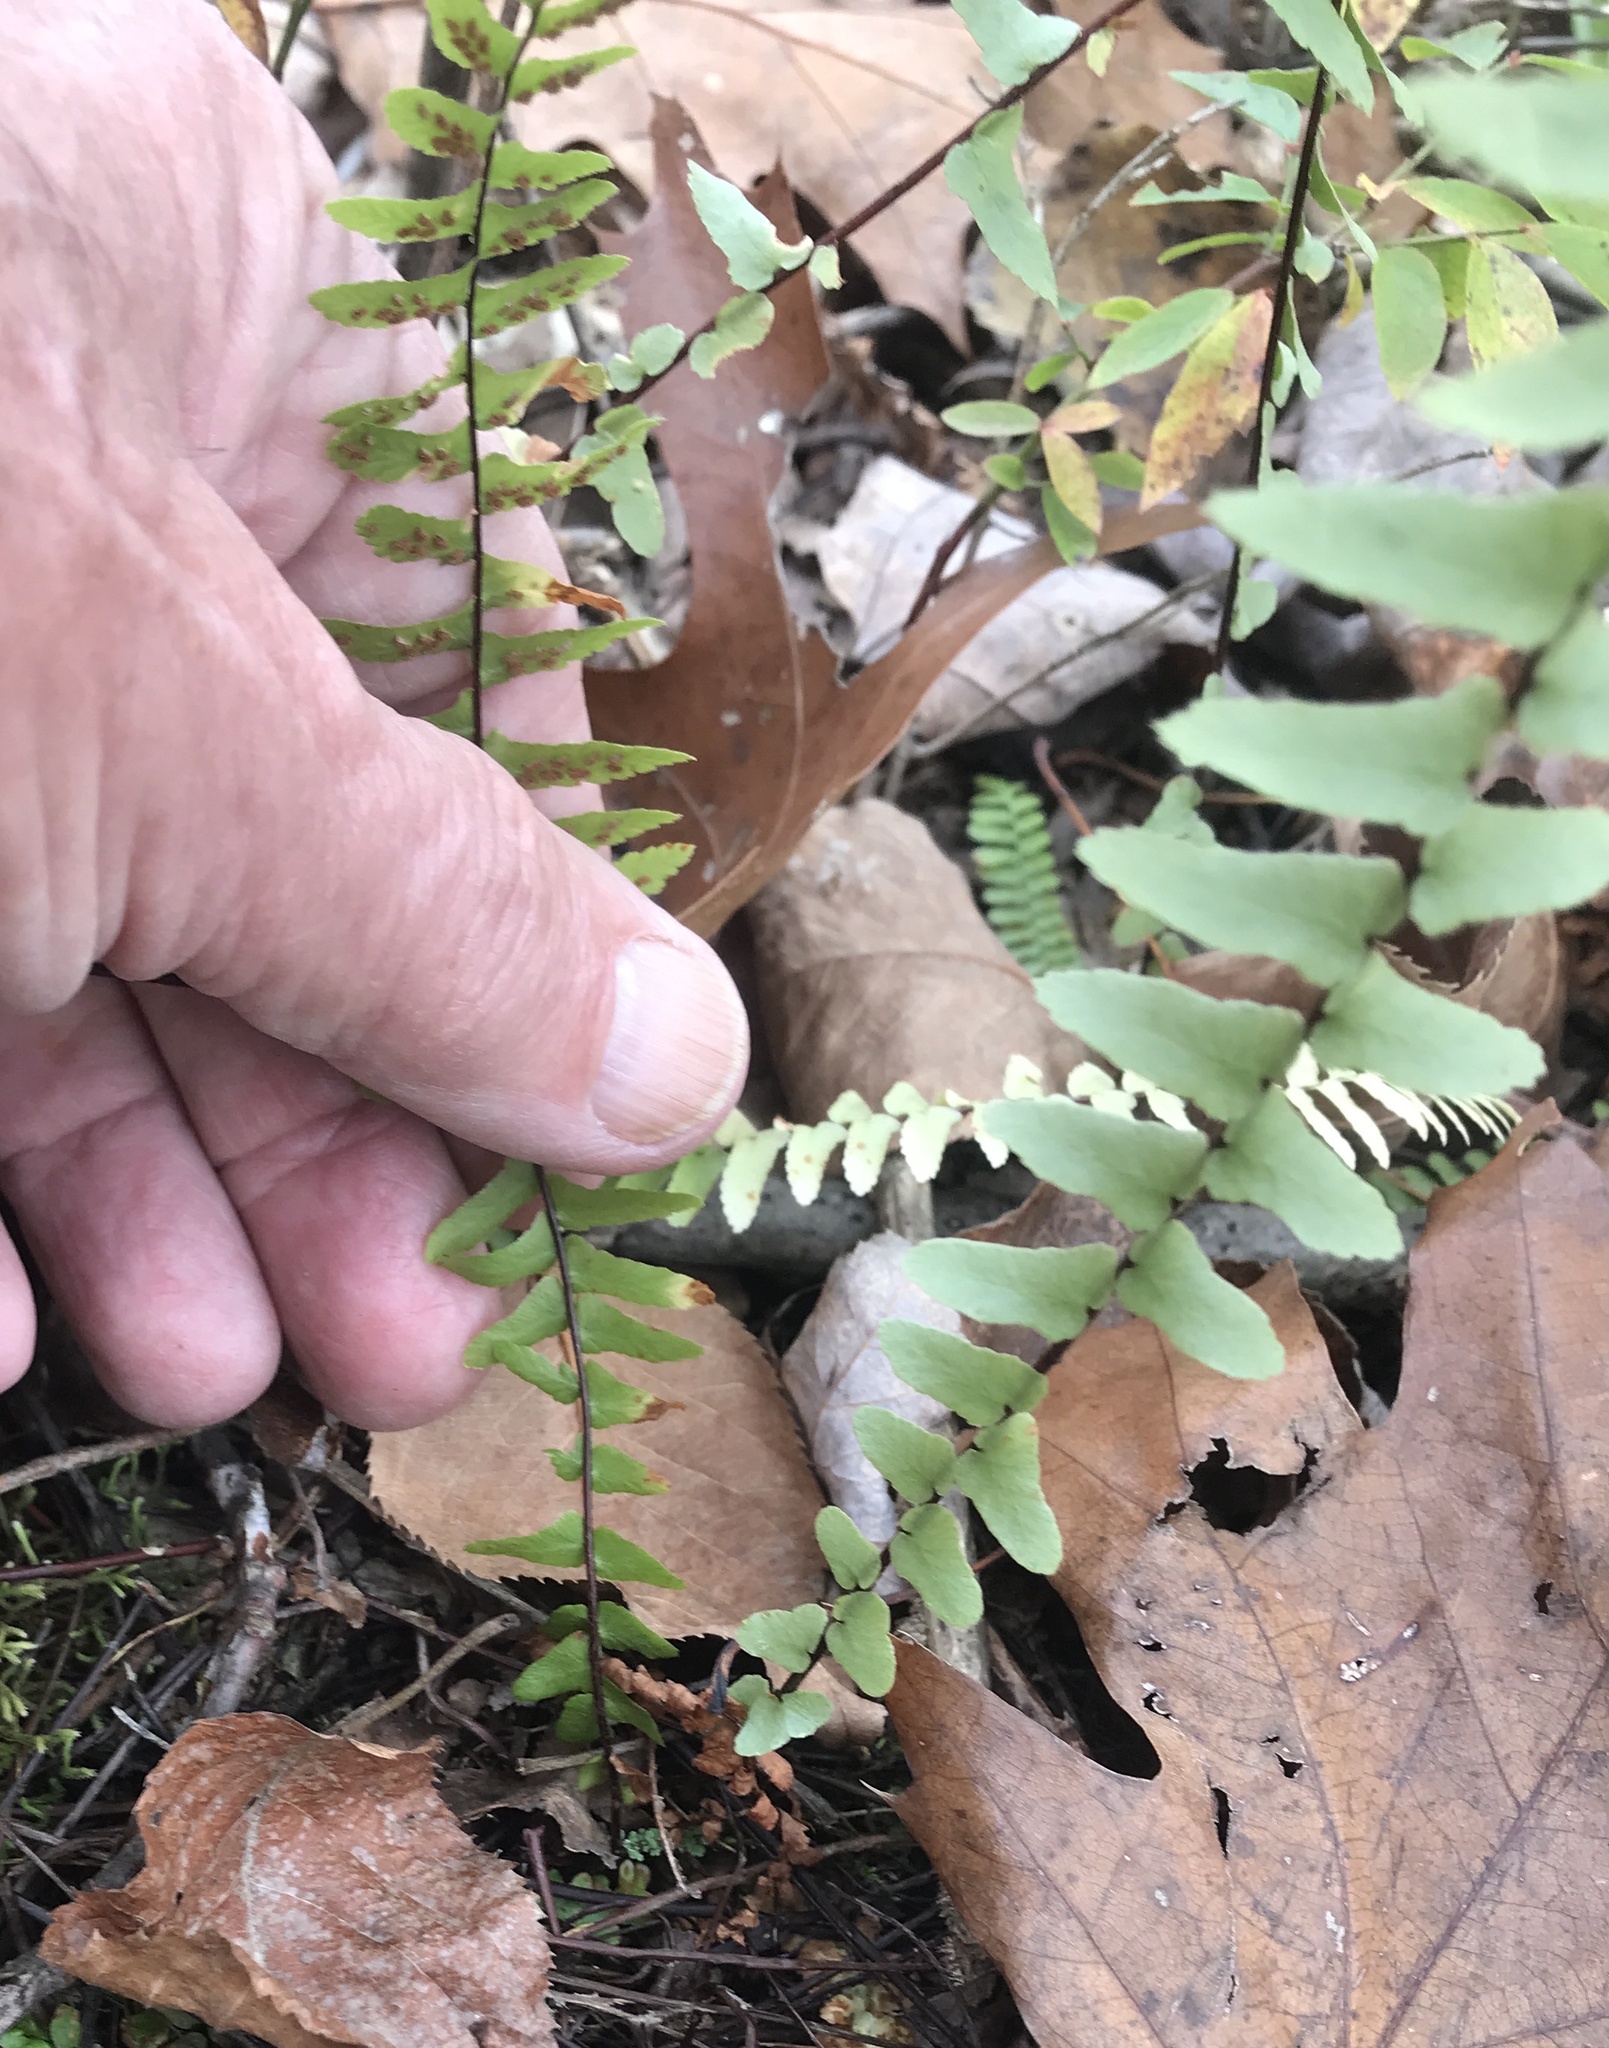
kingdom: Plantae
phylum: Tracheophyta
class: Polypodiopsida
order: Polypodiales
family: Aspleniaceae
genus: Asplenium
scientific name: Asplenium platyneuron
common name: Ebony spleenwort
